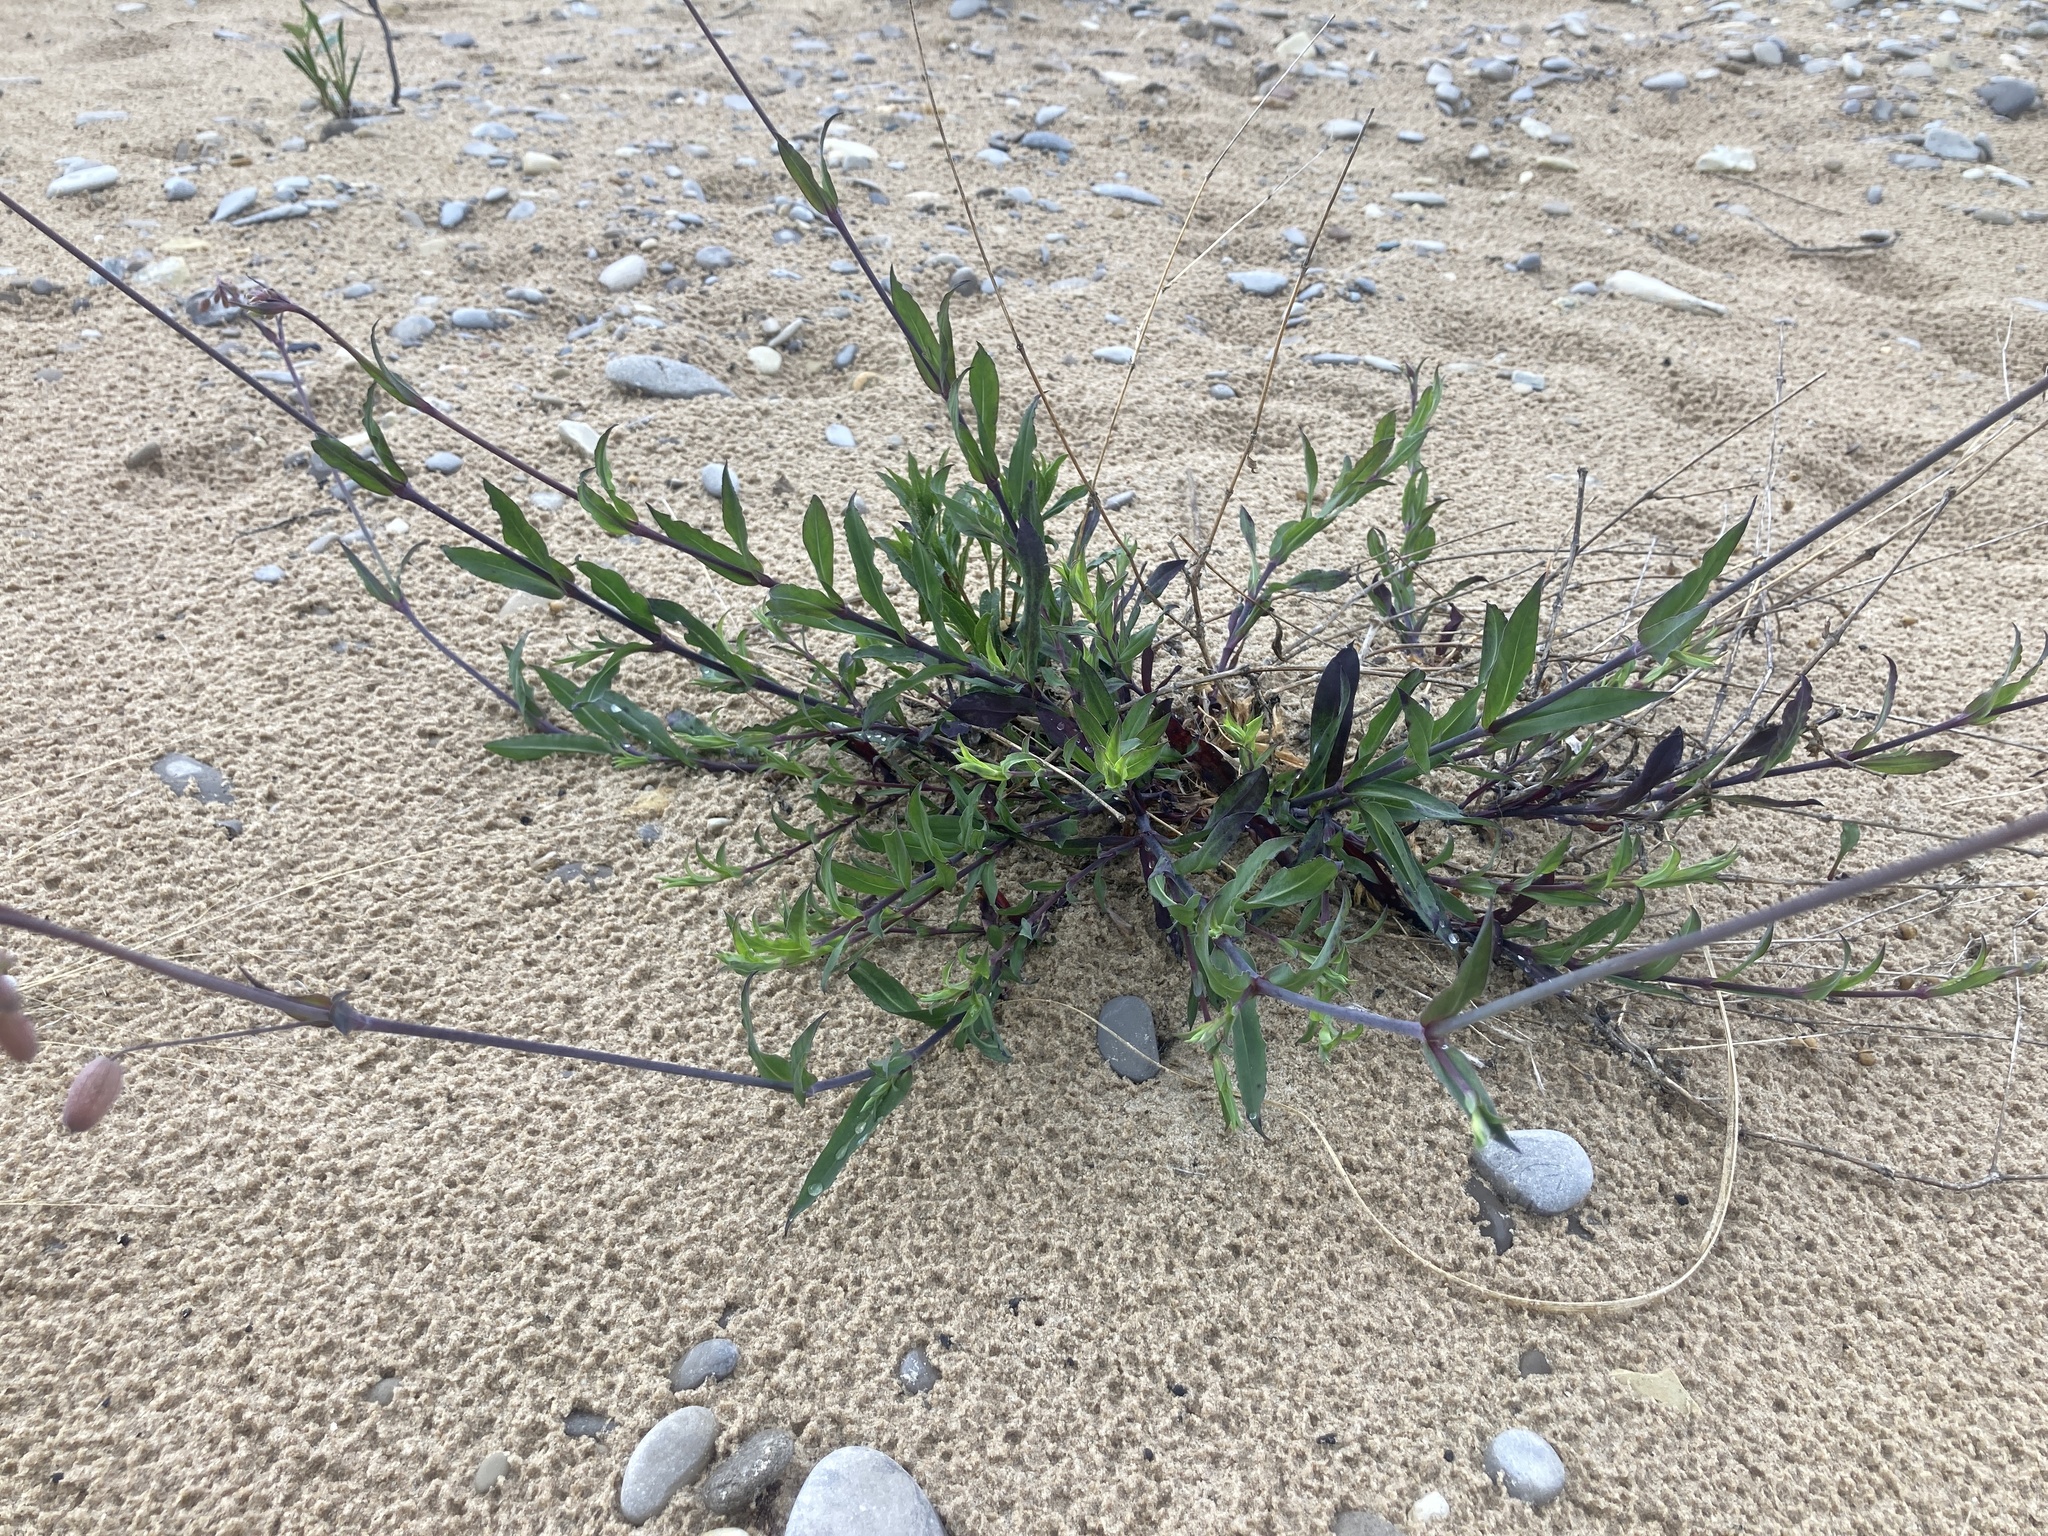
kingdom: Plantae
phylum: Tracheophyta
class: Magnoliopsida
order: Caryophyllales
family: Caryophyllaceae
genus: Silene
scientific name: Silene vulgaris
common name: Bladder campion
